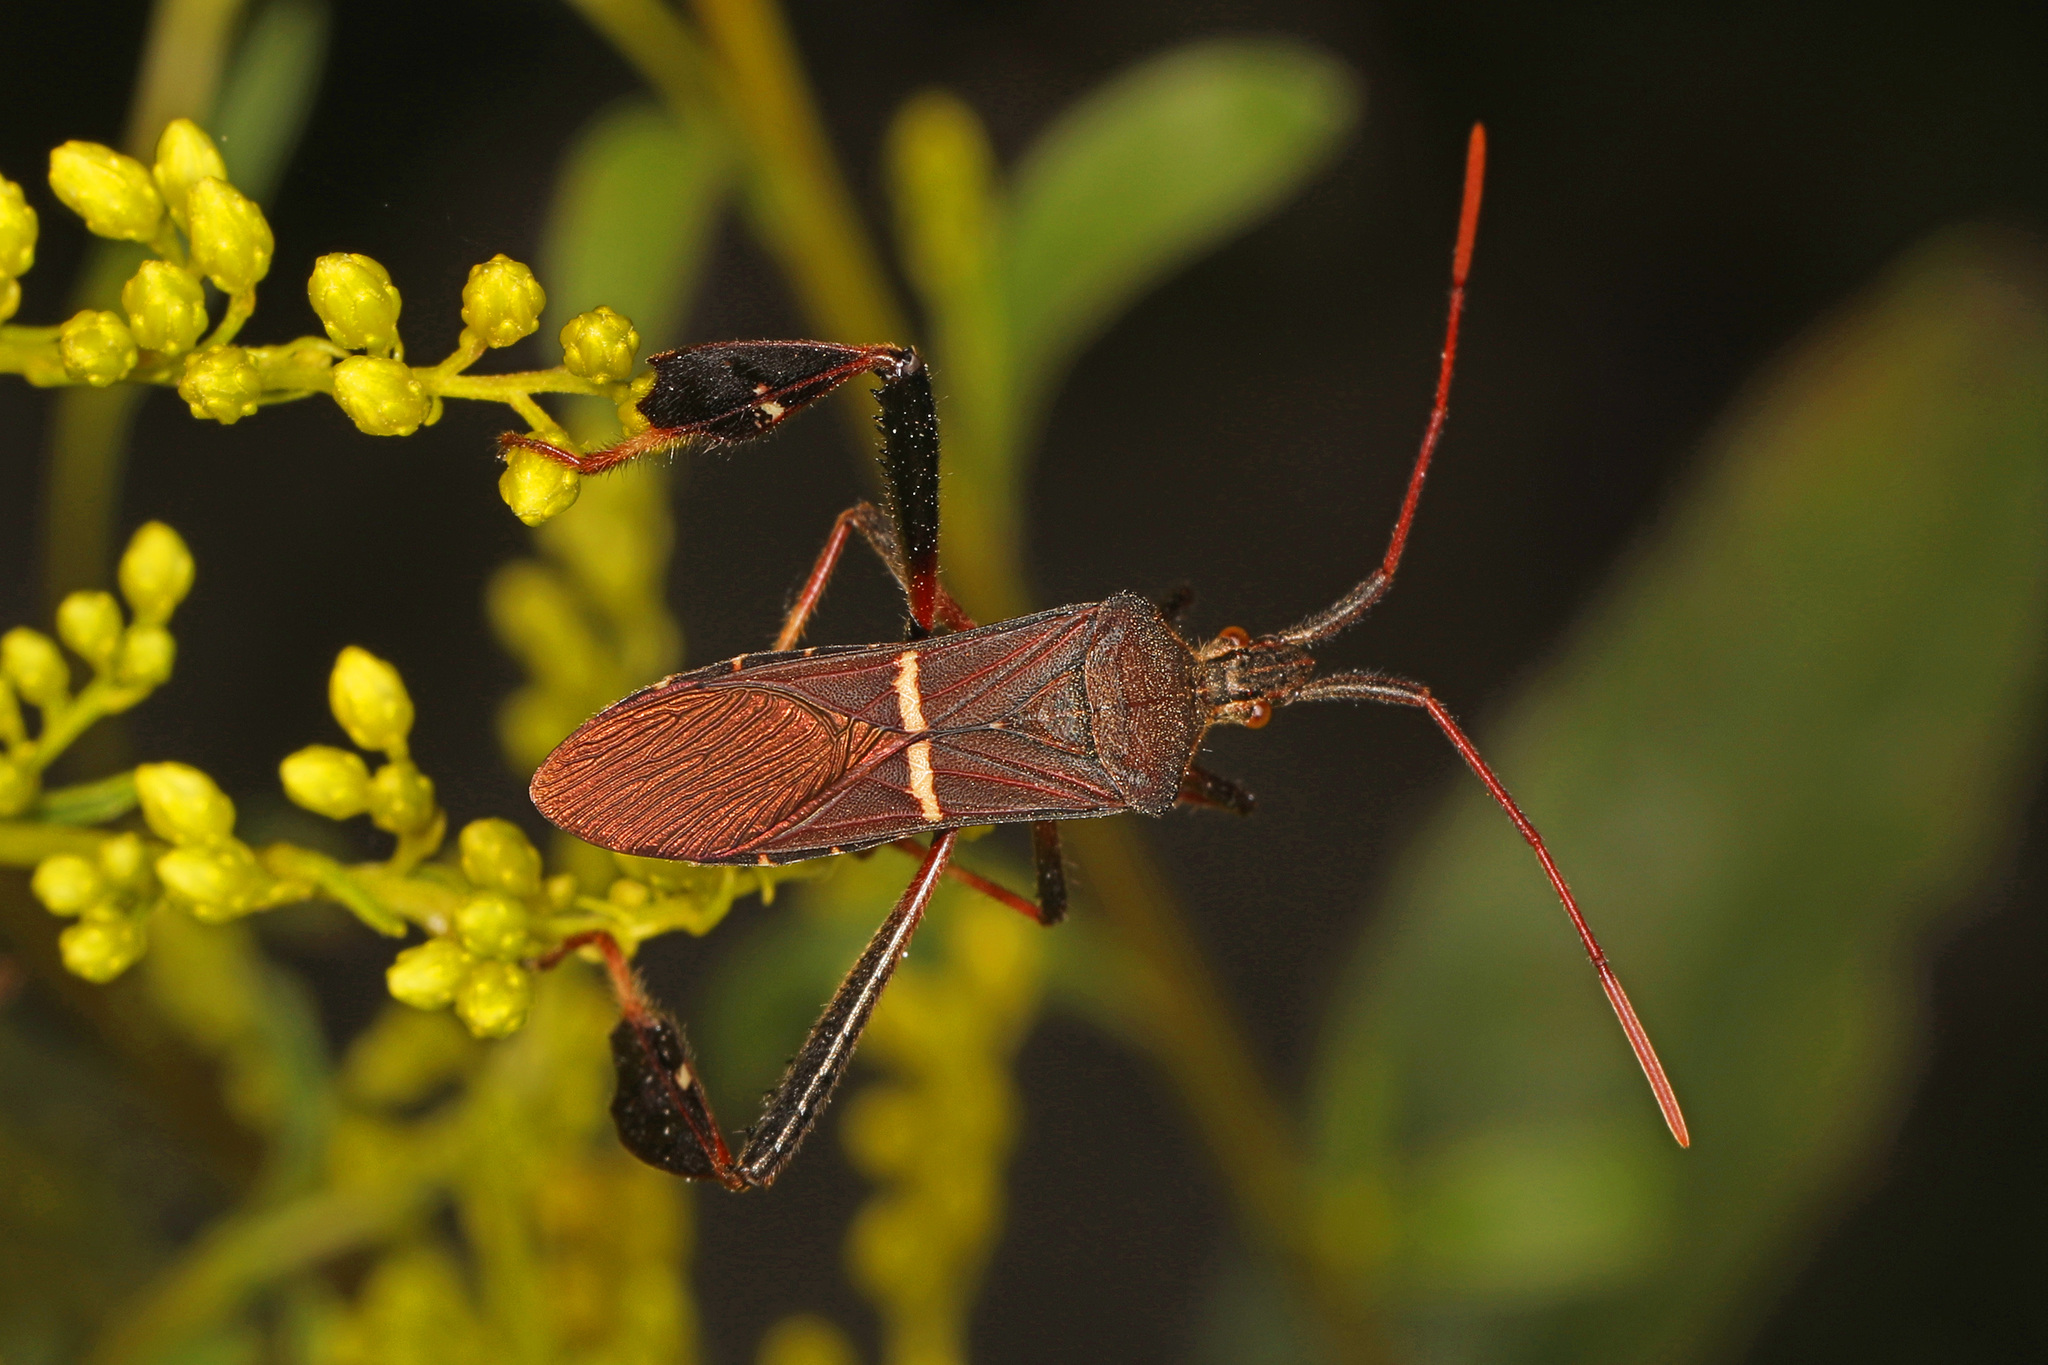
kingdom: Animalia
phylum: Arthropoda
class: Insecta
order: Hemiptera
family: Coreidae
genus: Leptoglossus
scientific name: Leptoglossus phyllopus
